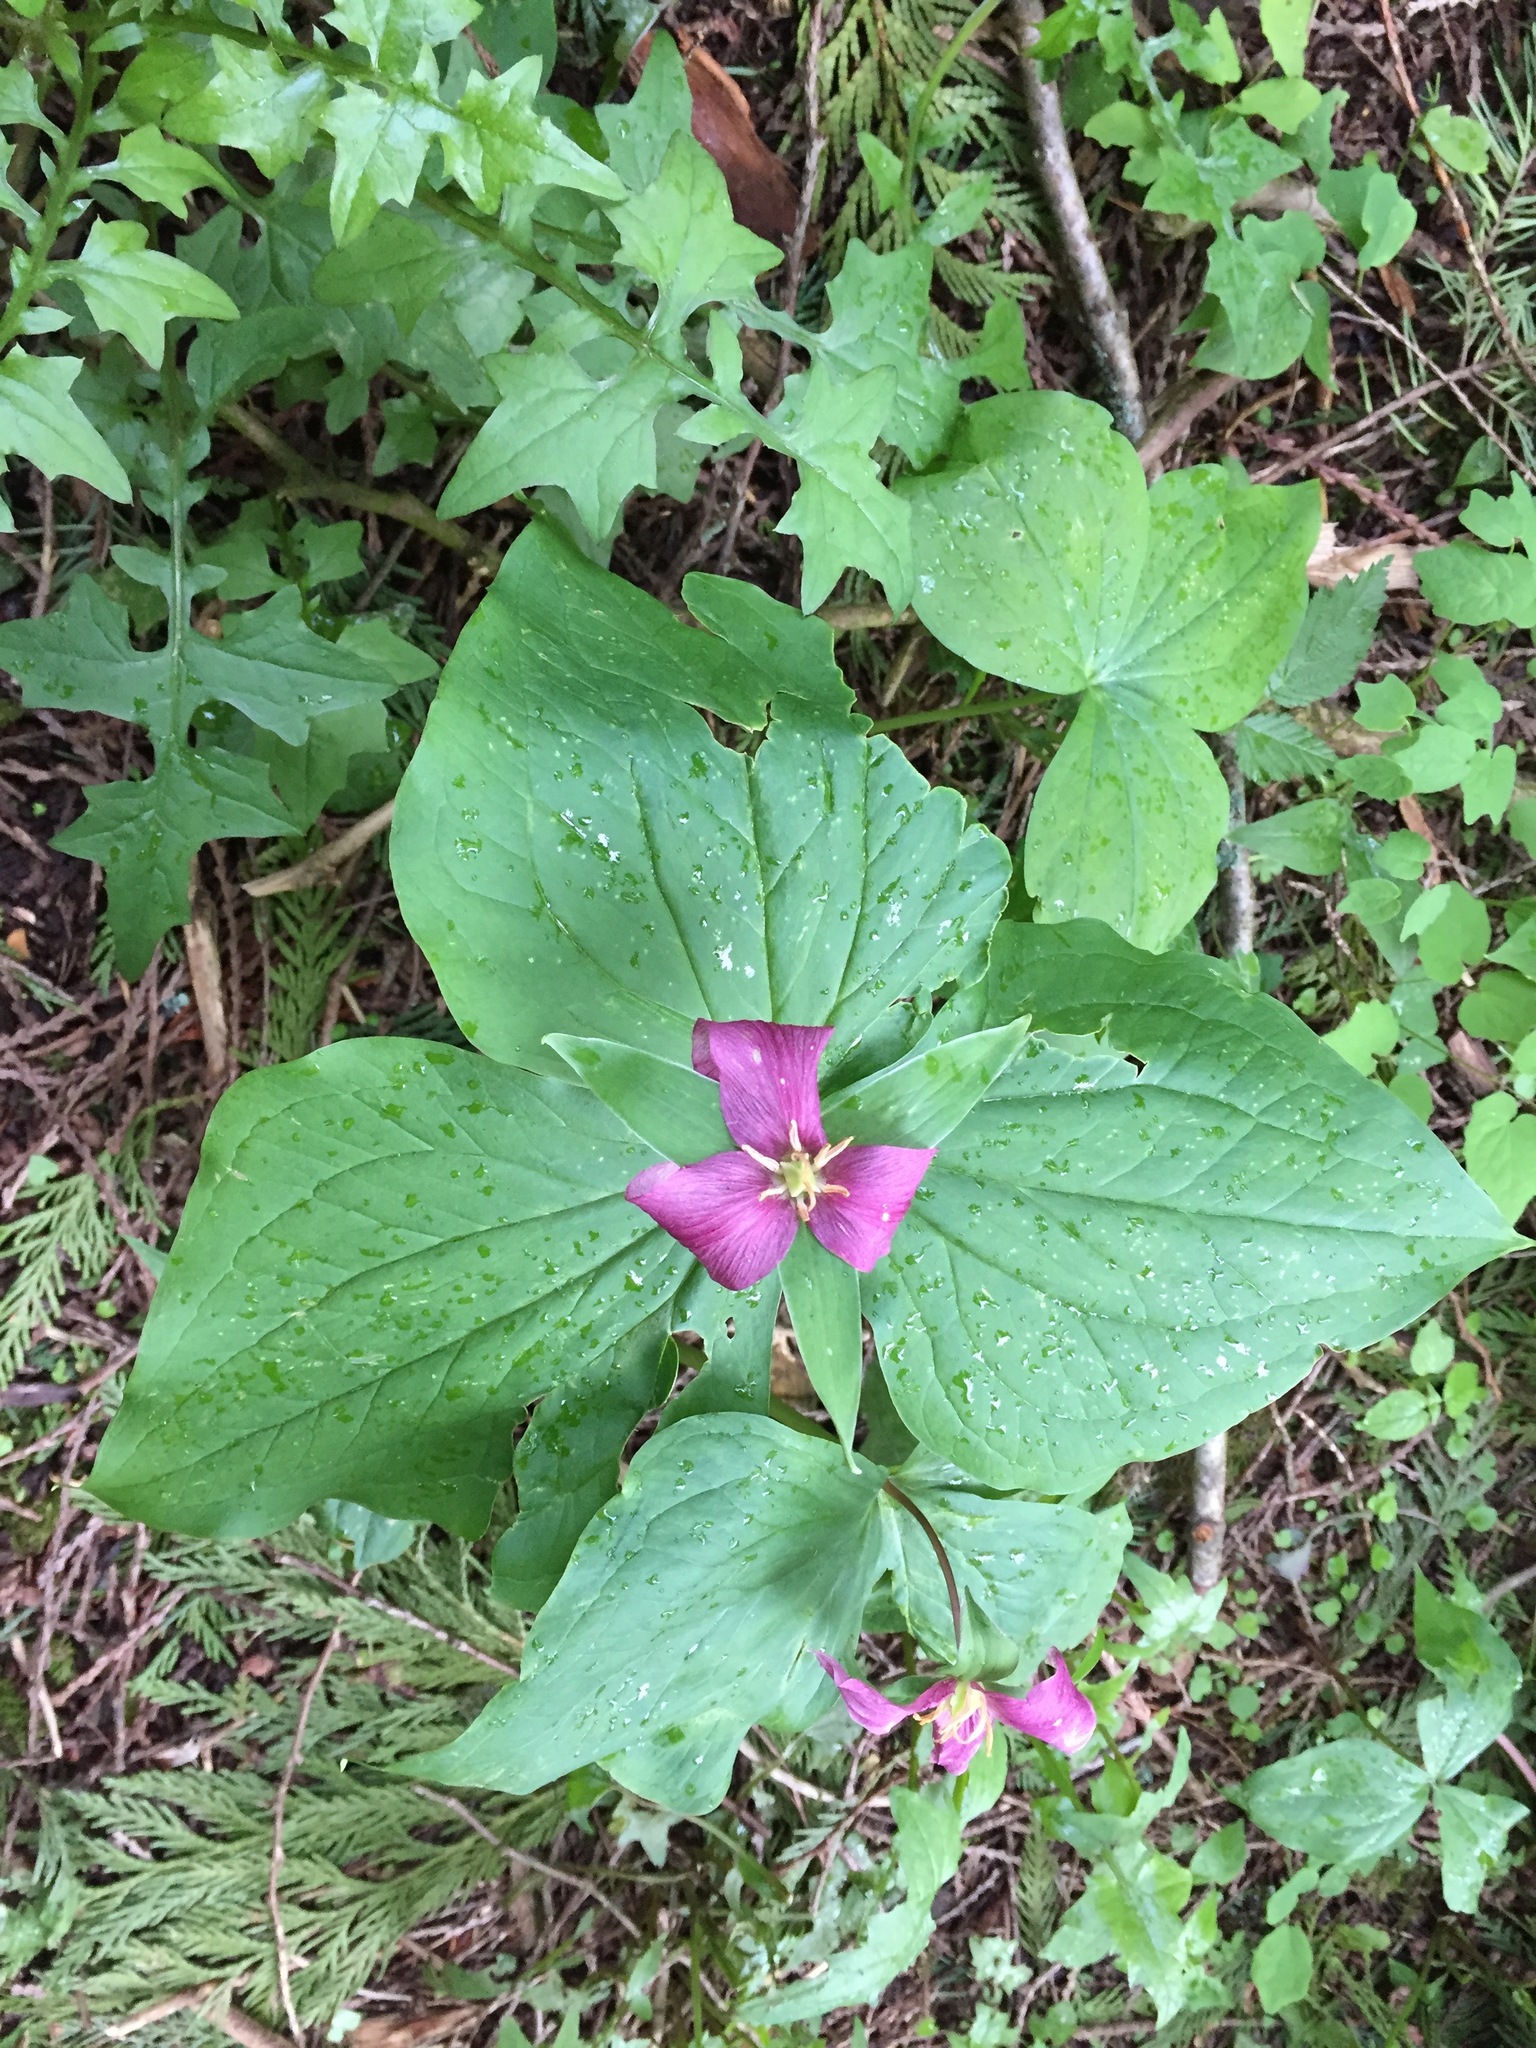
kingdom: Plantae
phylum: Tracheophyta
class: Liliopsida
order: Liliales
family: Melanthiaceae
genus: Trillium
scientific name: Trillium ovatum
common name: Pacific trillium
